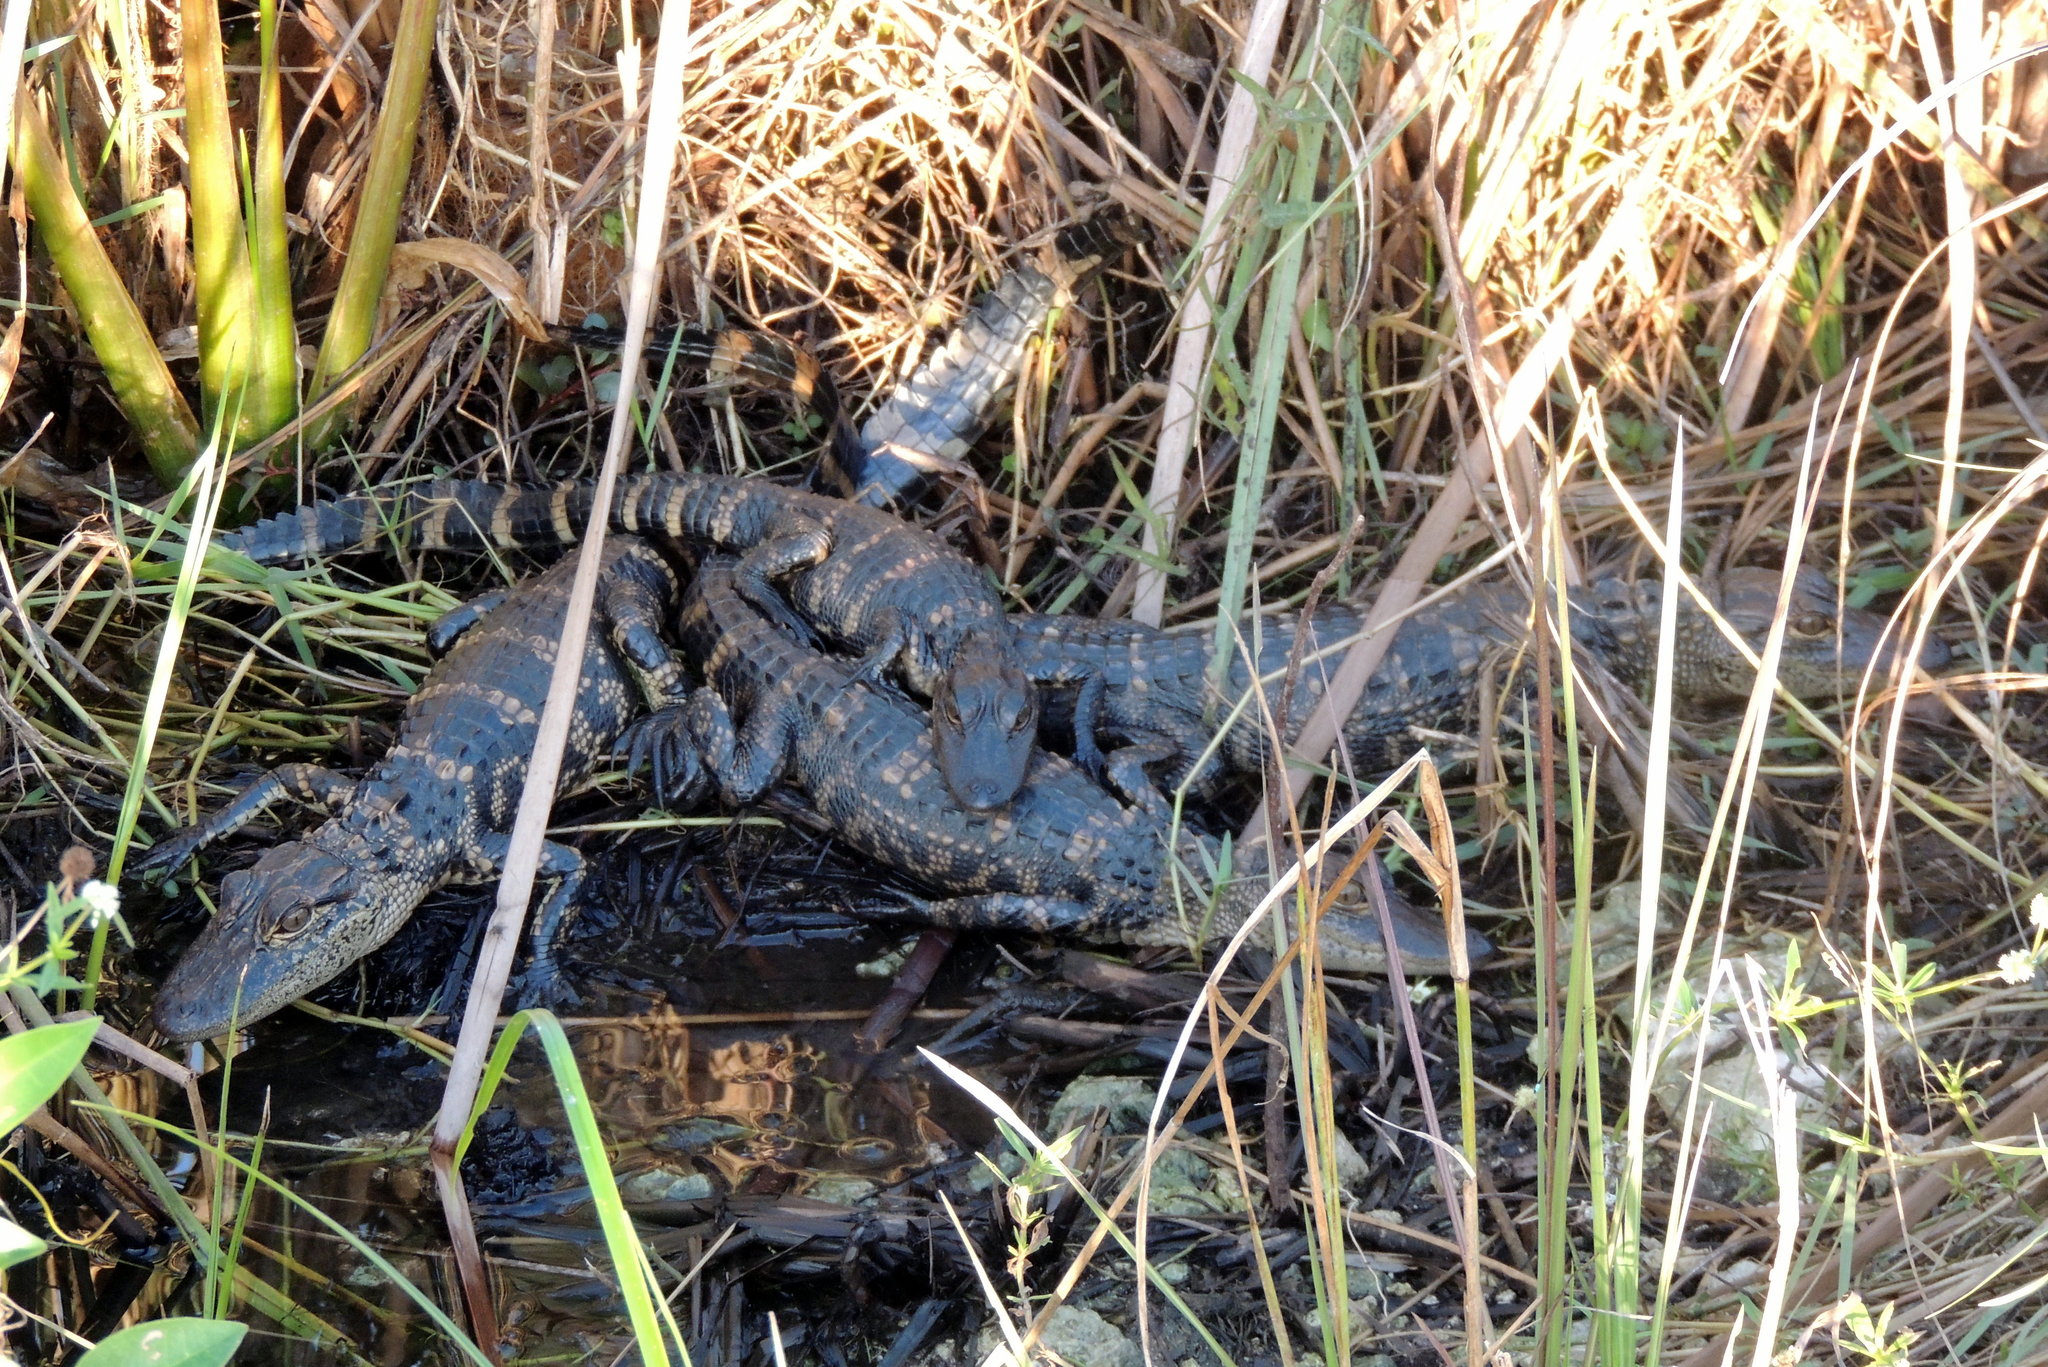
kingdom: Animalia
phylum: Chordata
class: Crocodylia
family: Alligatoridae
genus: Alligator
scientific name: Alligator mississippiensis
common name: American alligator
